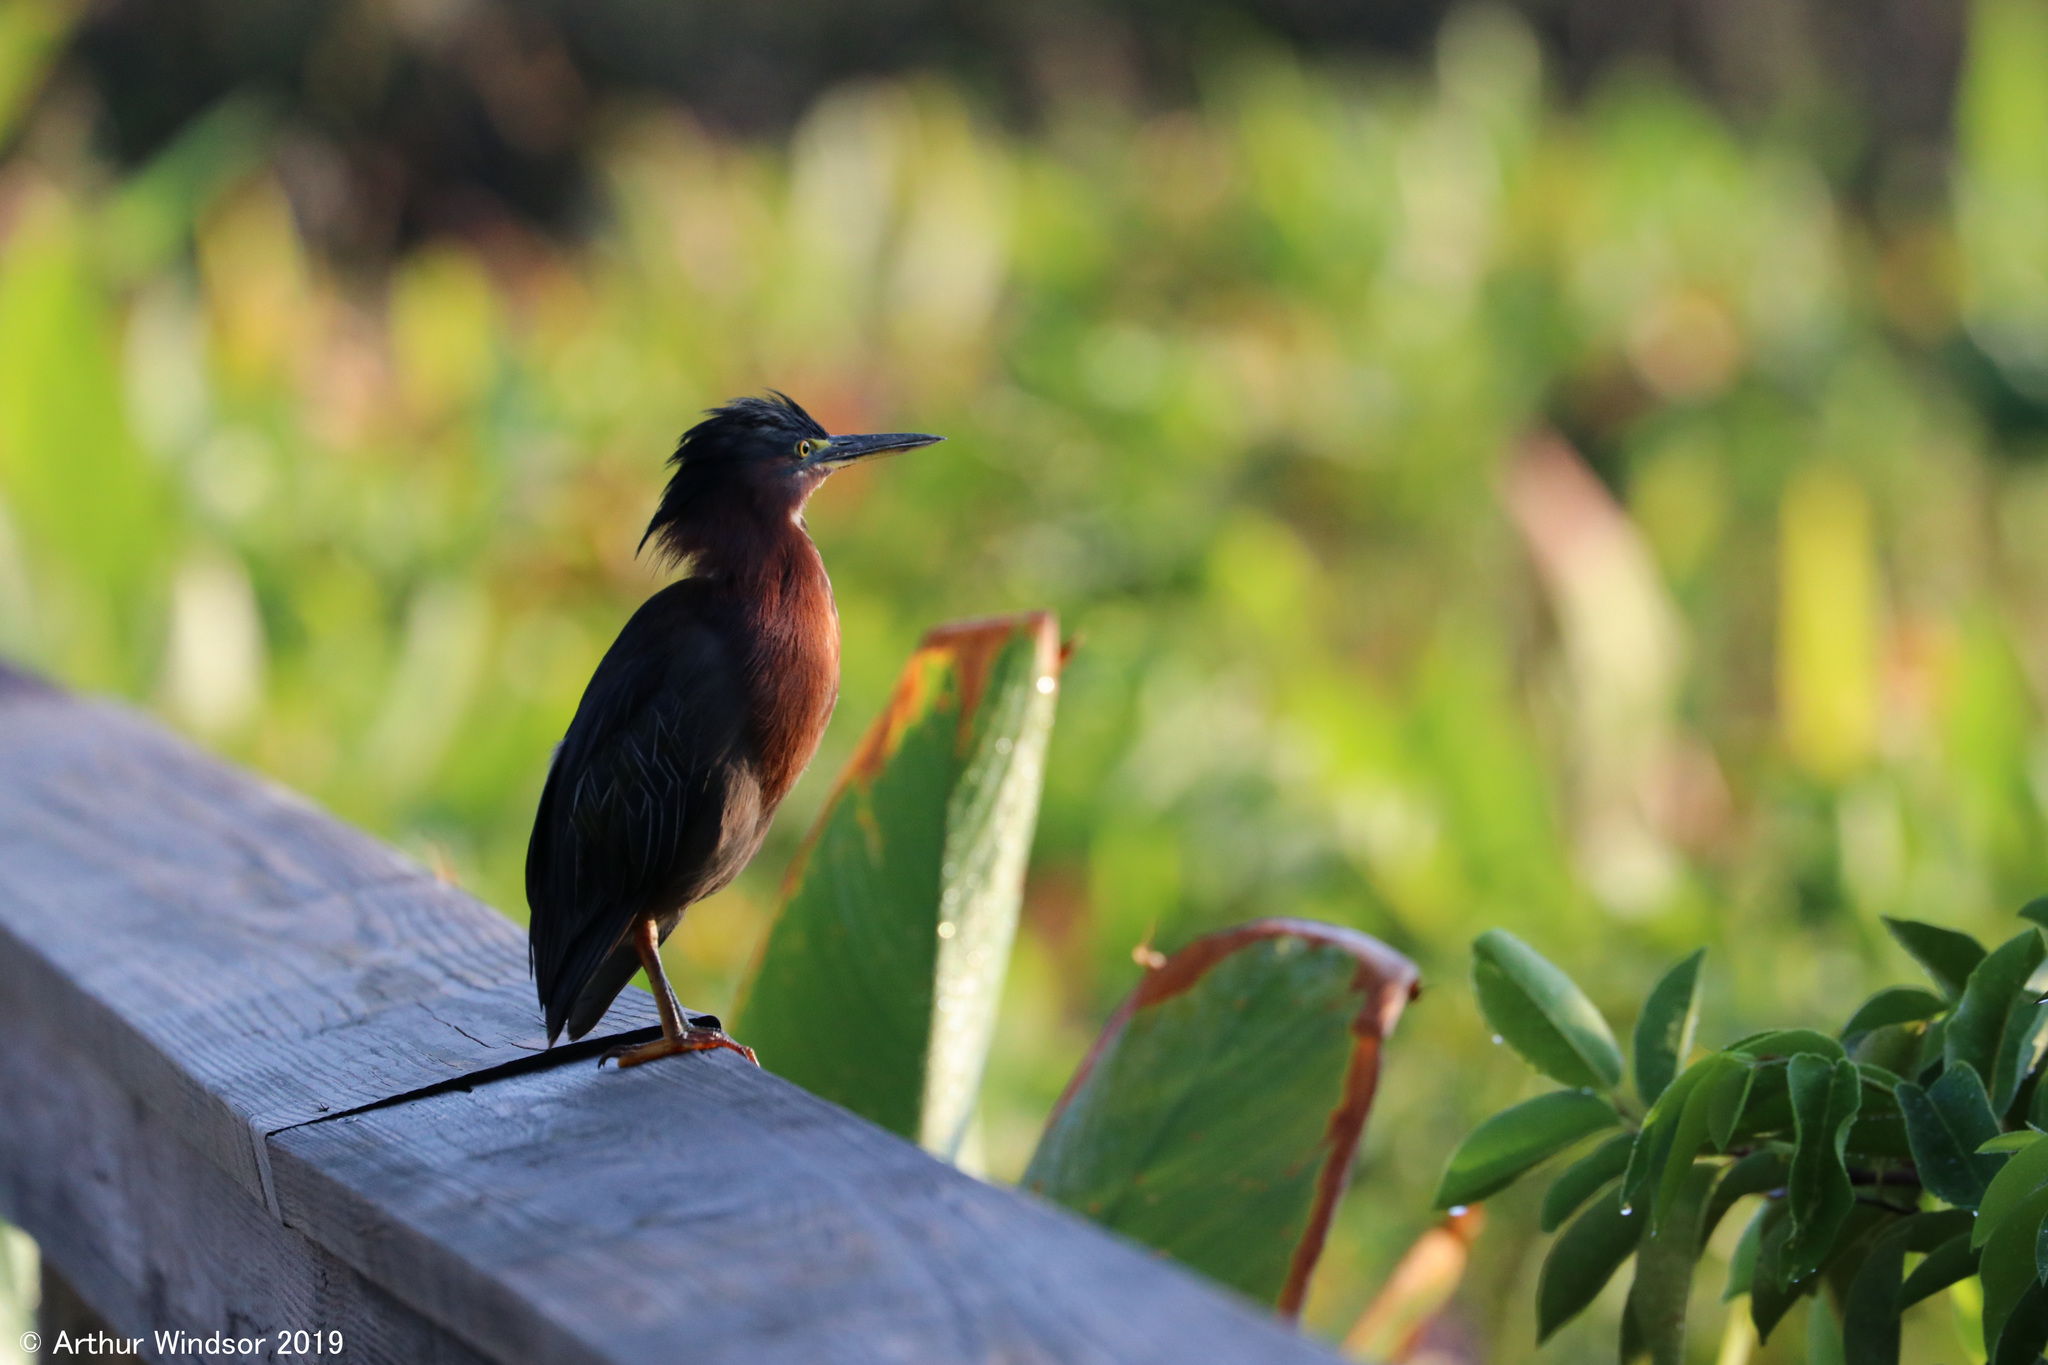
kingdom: Animalia
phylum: Chordata
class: Aves
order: Pelecaniformes
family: Ardeidae
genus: Butorides
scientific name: Butorides virescens
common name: Green heron
